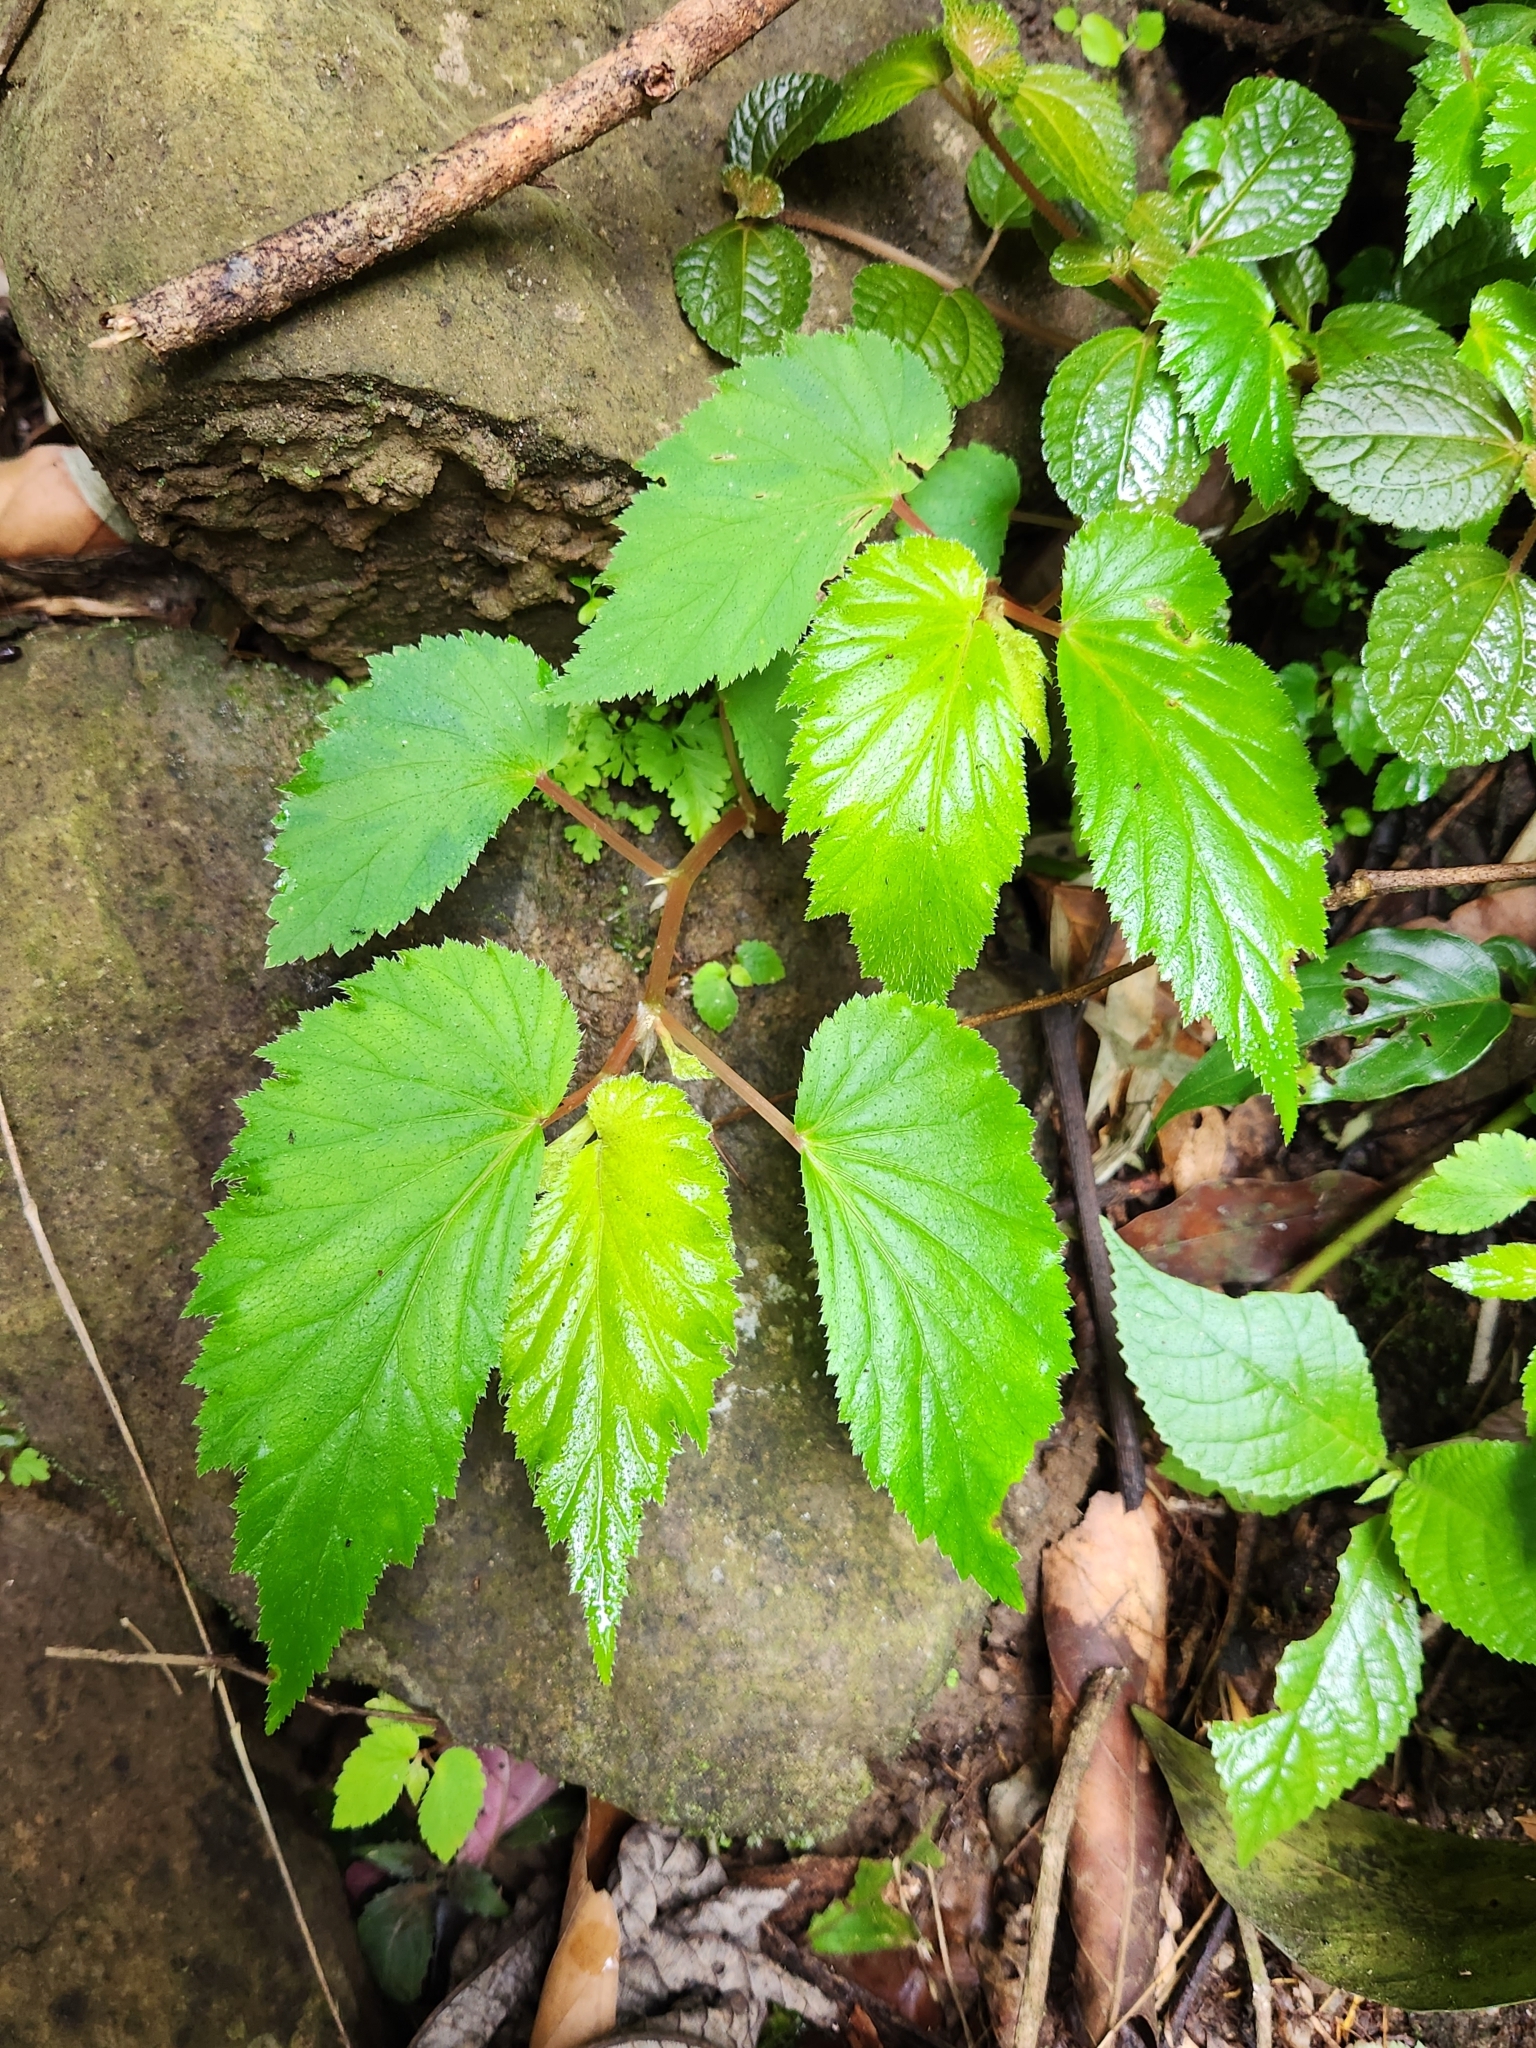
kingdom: Plantae
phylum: Tracheophyta
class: Magnoliopsida
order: Cucurbitales
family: Begoniaceae
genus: Begonia
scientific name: Begonia hirsuta
